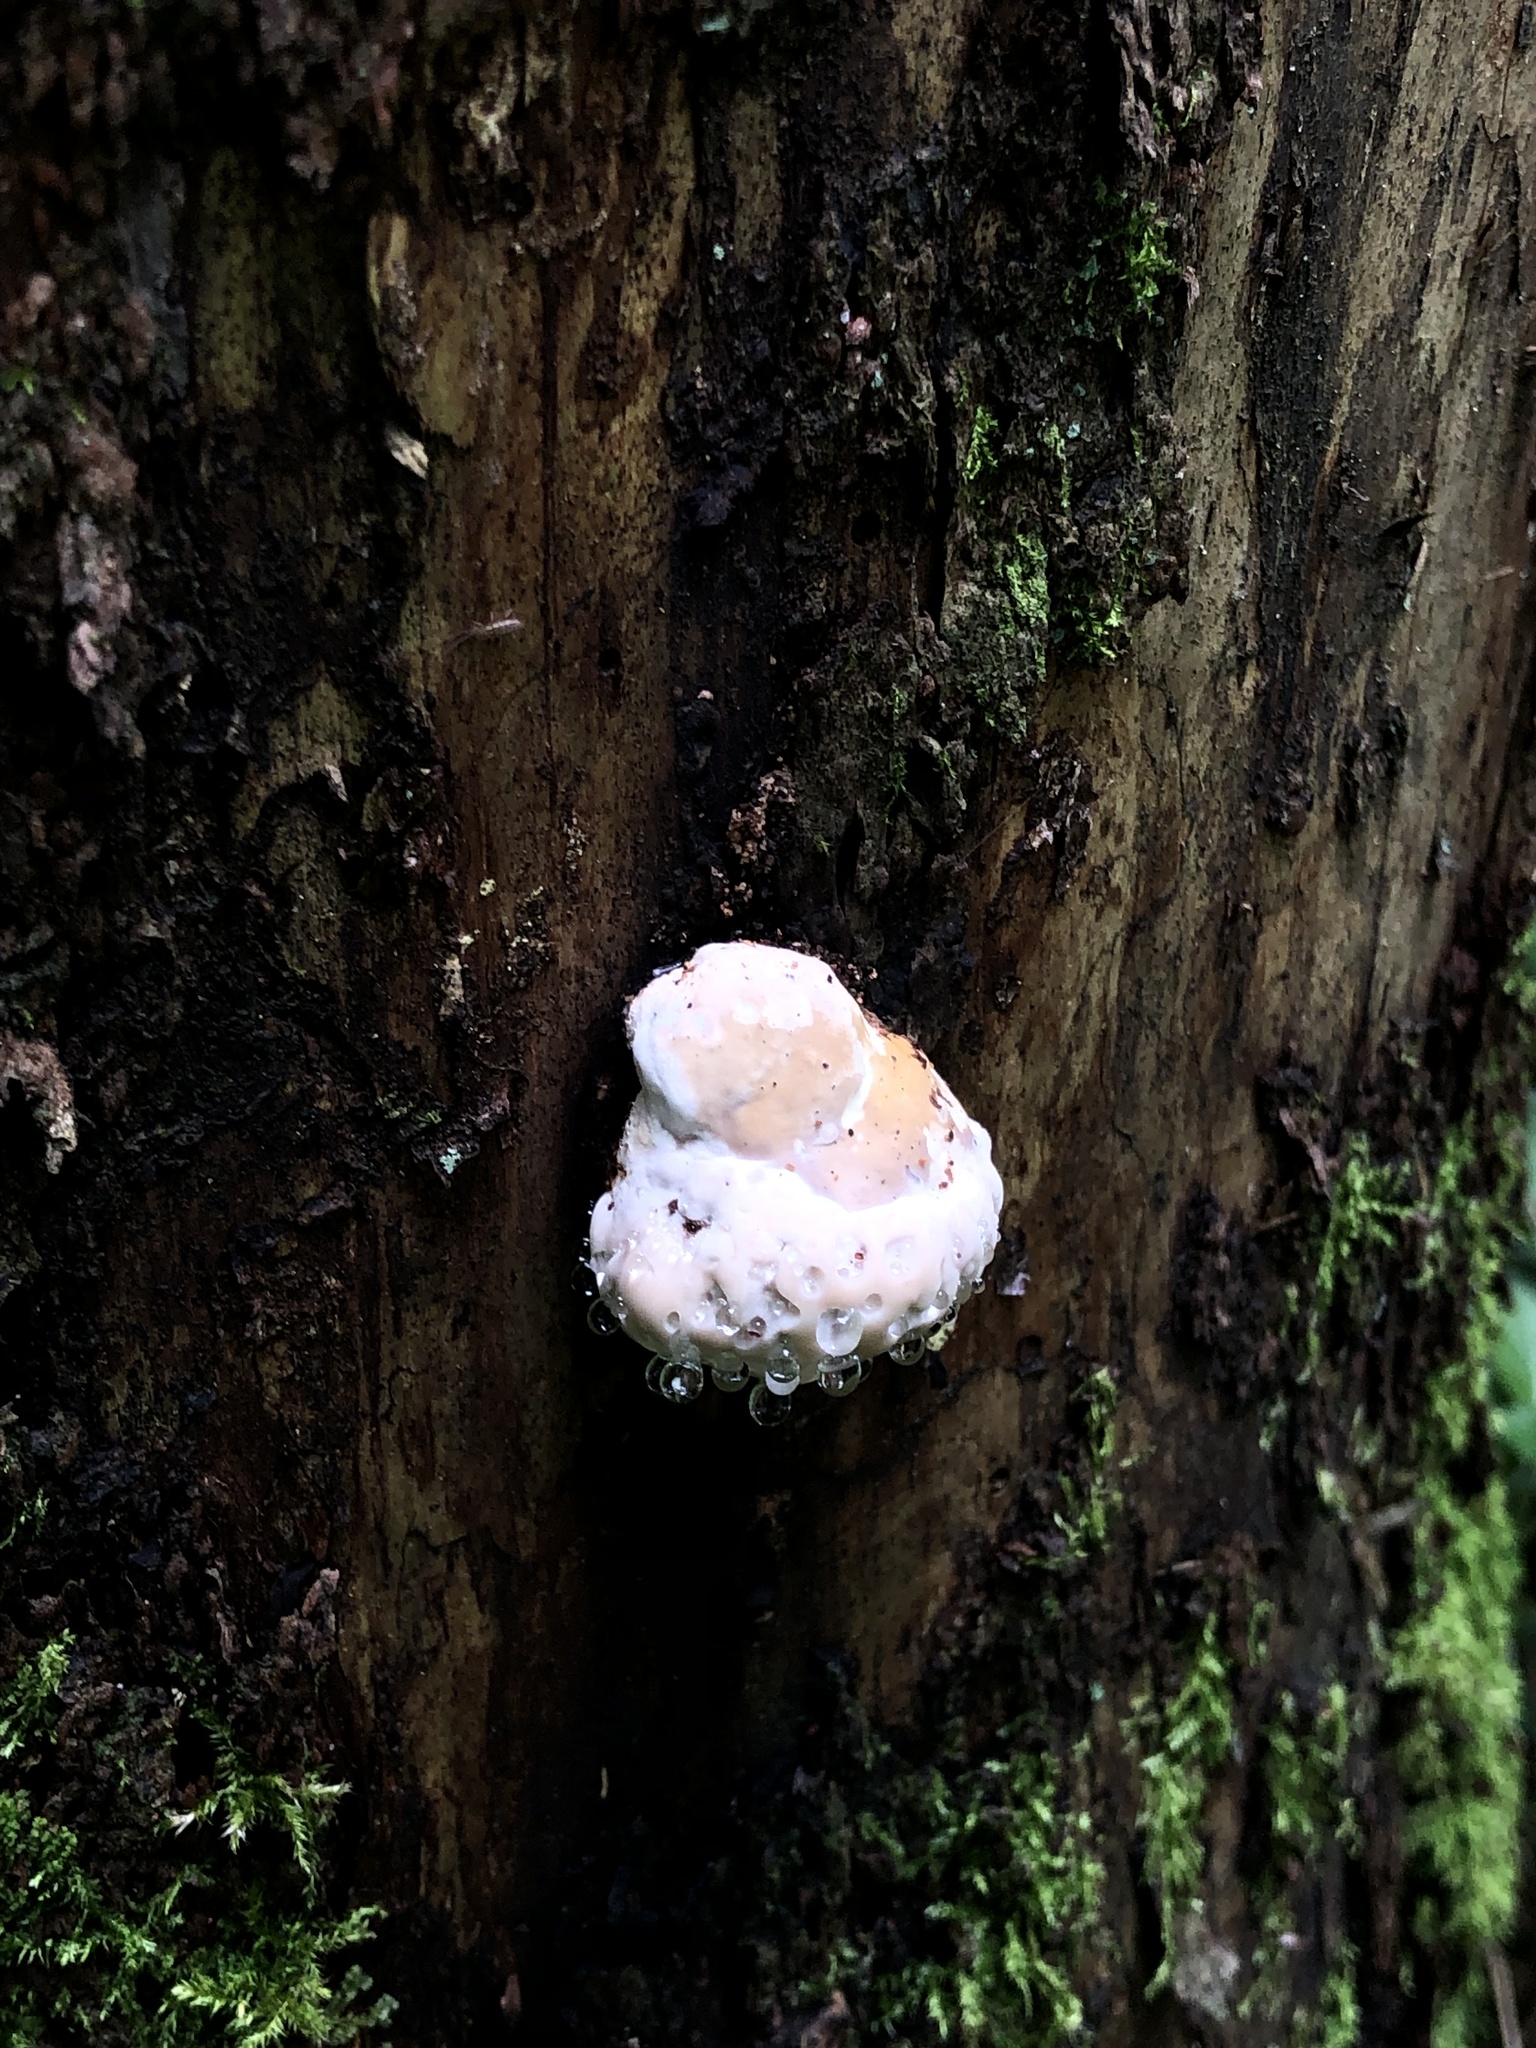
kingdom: Fungi
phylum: Basidiomycota
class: Agaricomycetes
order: Polyporales
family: Fomitopsidaceae
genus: Fomitopsis
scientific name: Fomitopsis pinicola
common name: Red-belted bracket
